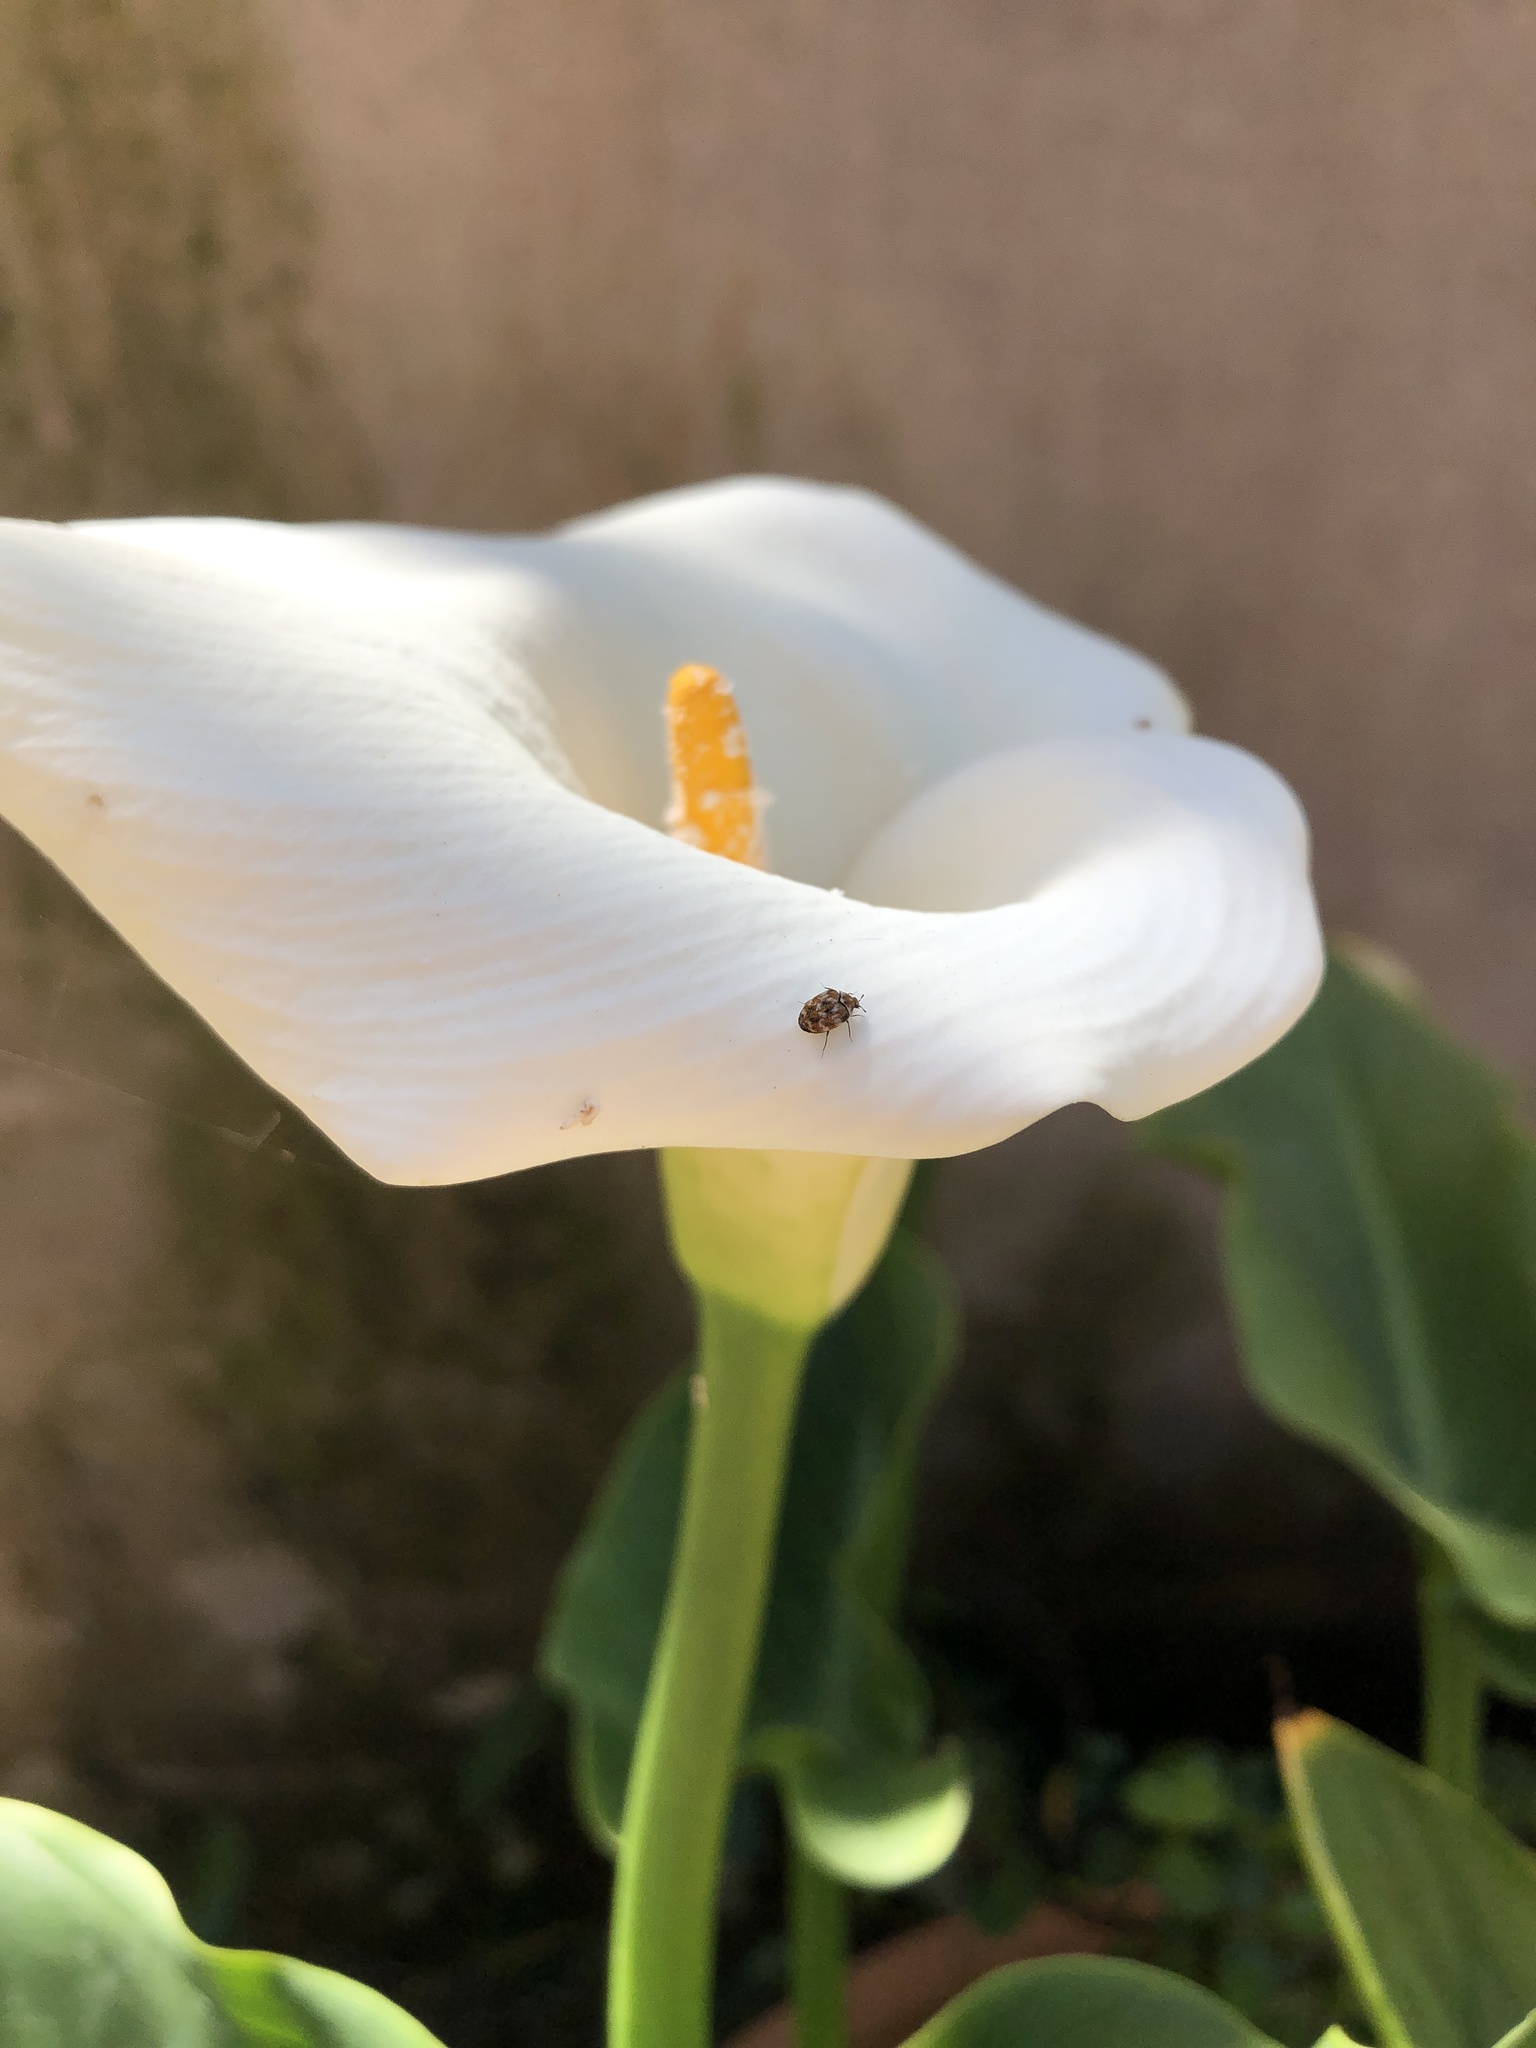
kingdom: Animalia
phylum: Arthropoda
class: Insecta
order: Coleoptera
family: Dermestidae
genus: Anthrenus
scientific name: Anthrenus verbasci
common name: Varied carpet beetle
